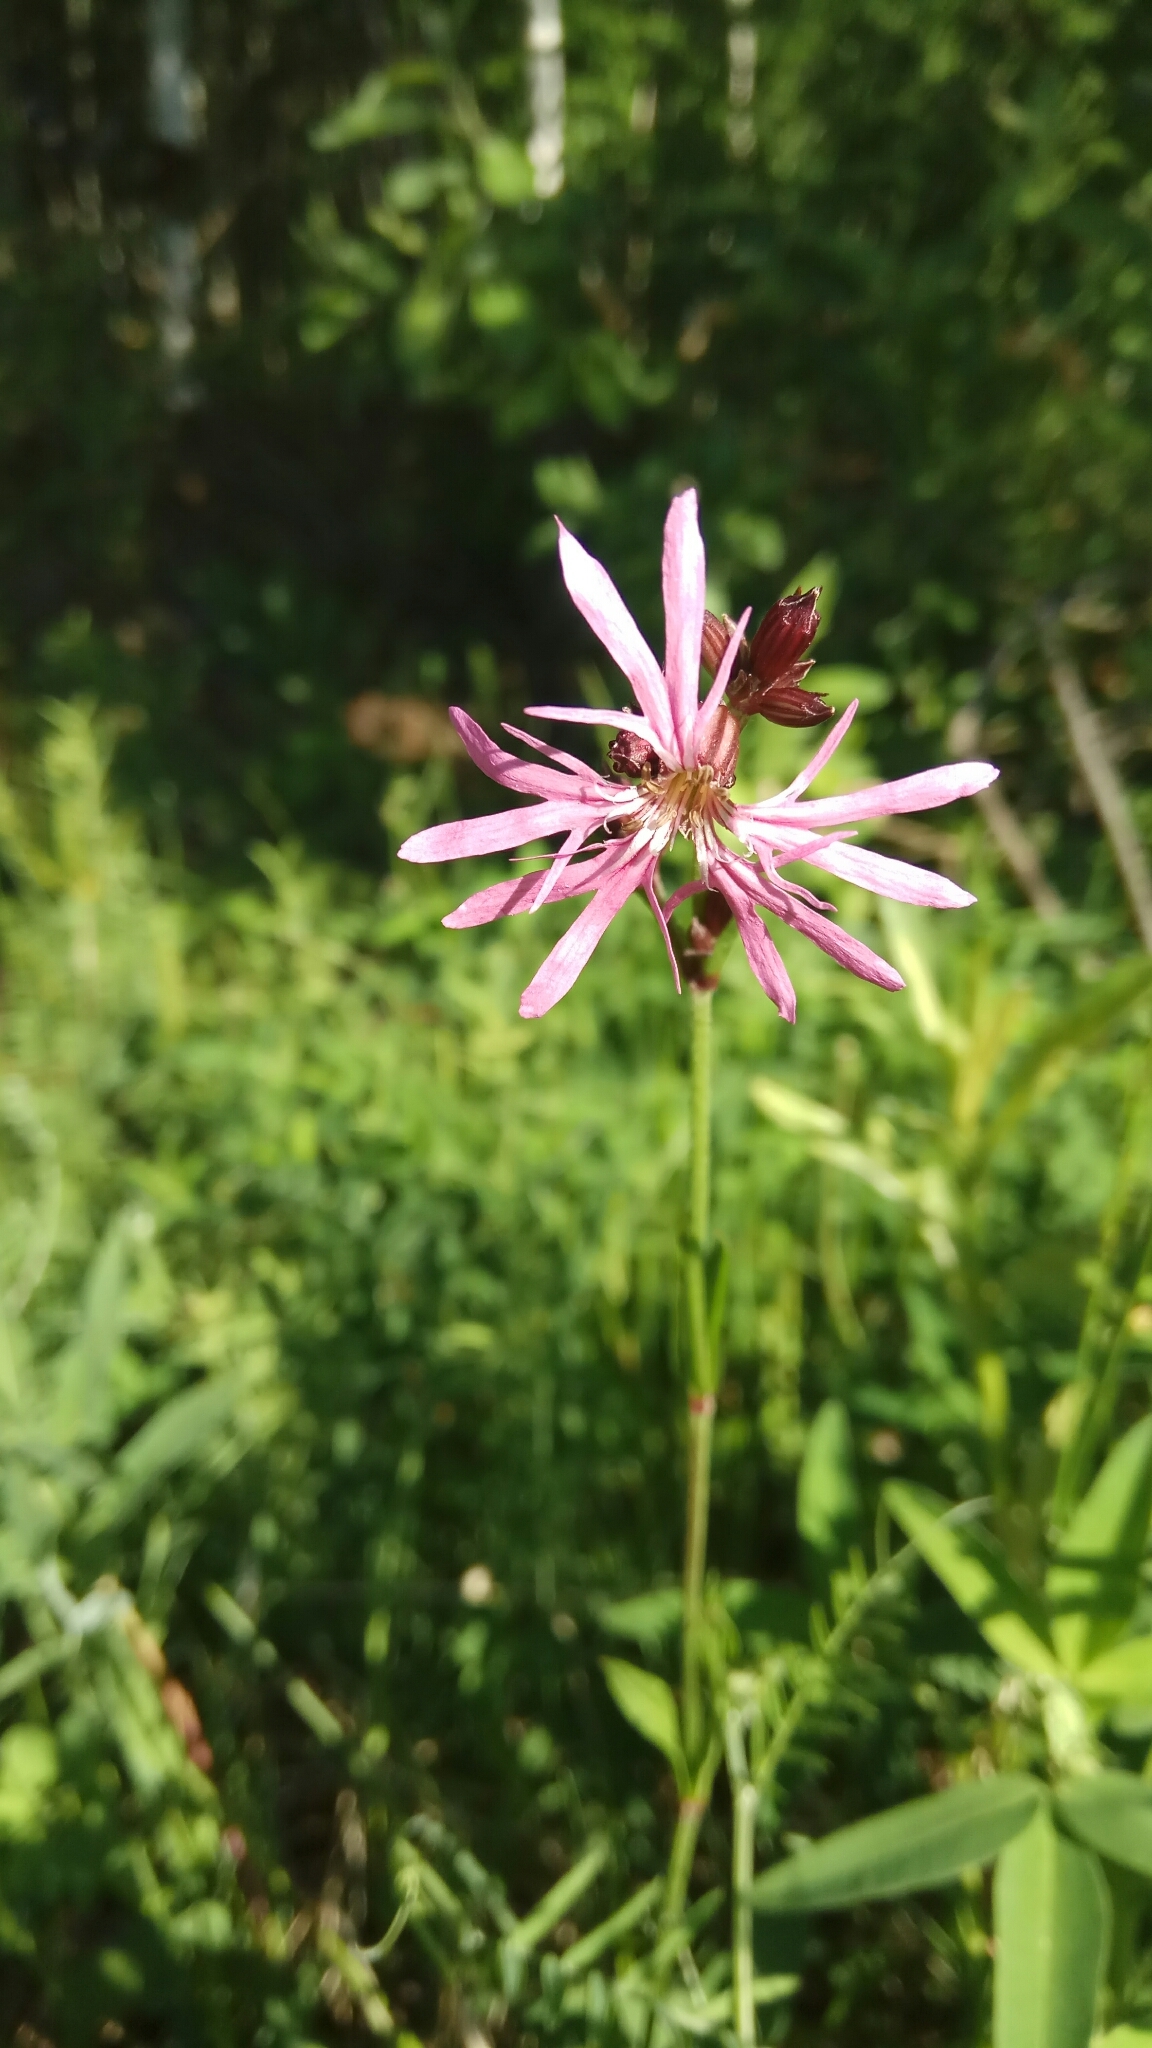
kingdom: Plantae
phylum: Tracheophyta
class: Magnoliopsida
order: Caryophyllales
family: Caryophyllaceae
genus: Silene
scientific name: Silene flos-cuculi
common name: Ragged-robin
